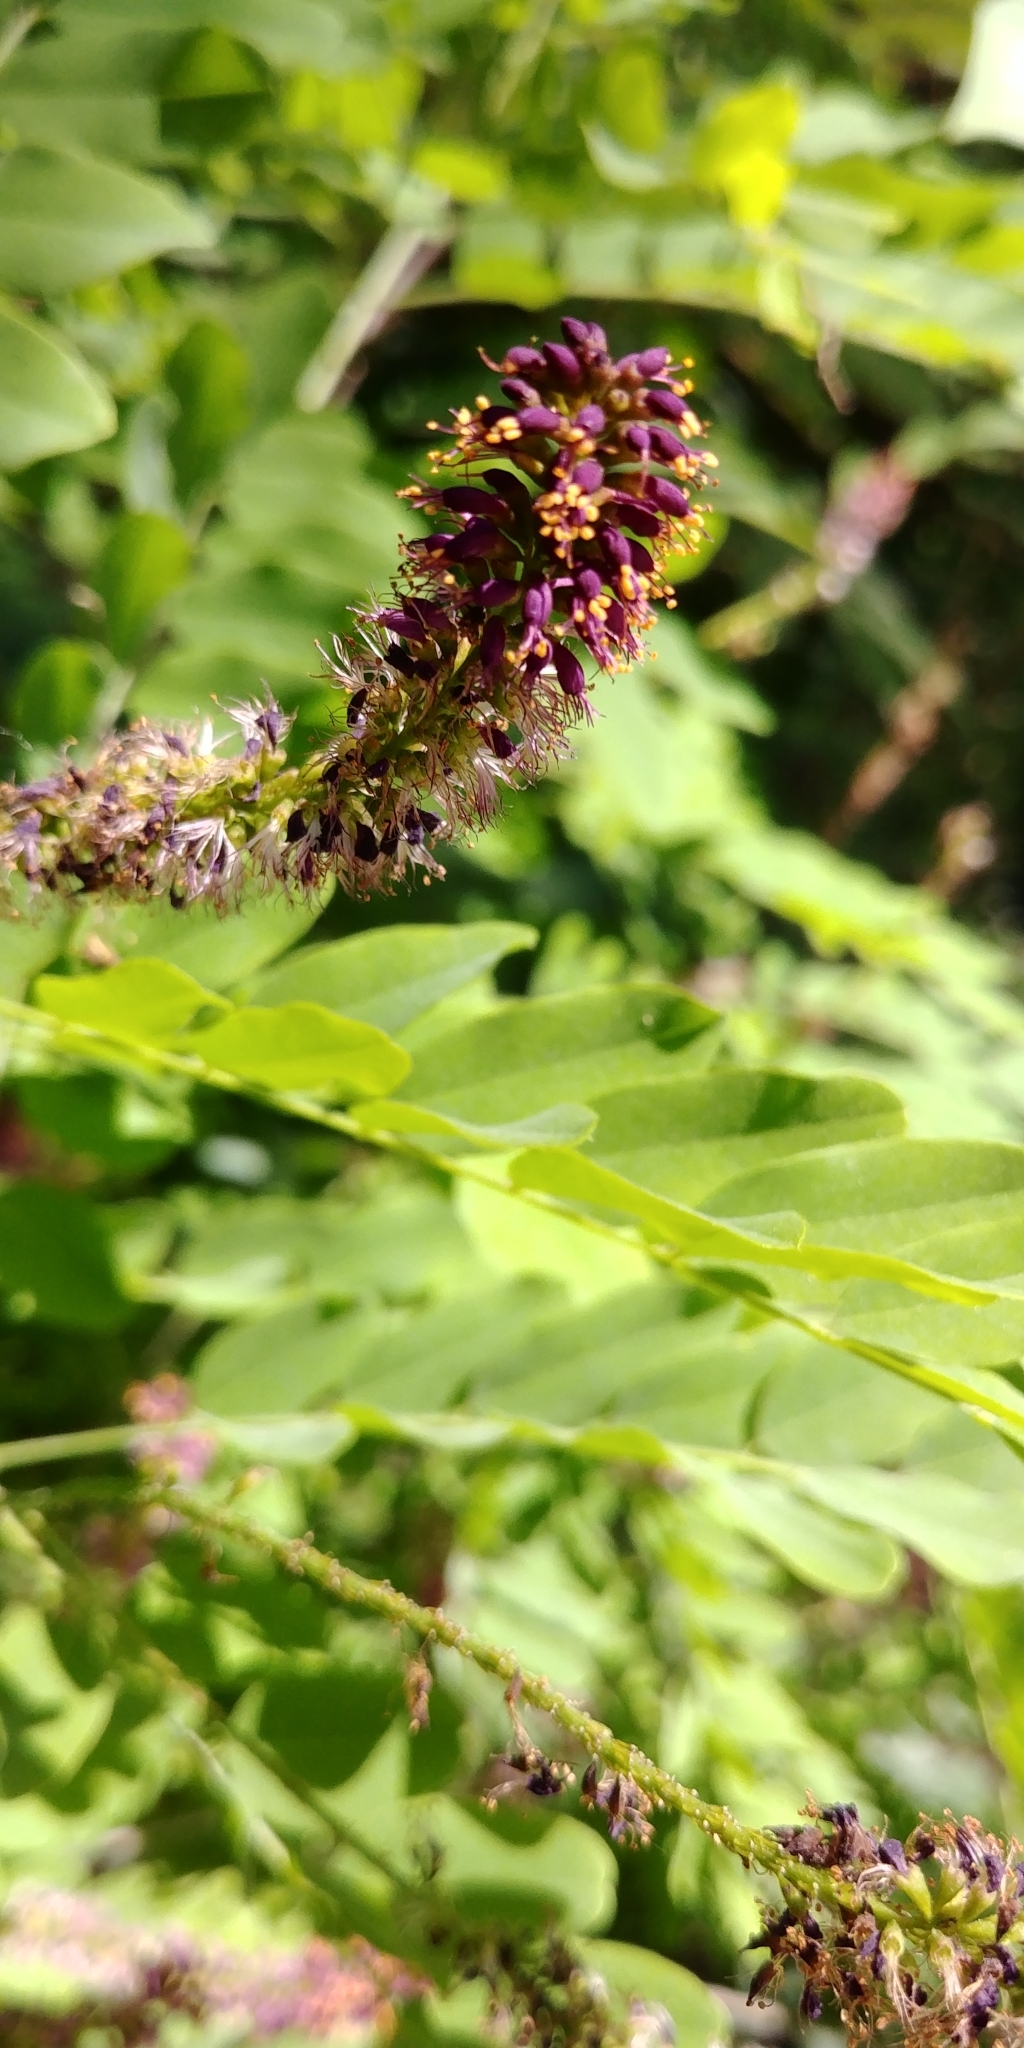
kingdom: Plantae
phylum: Tracheophyta
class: Magnoliopsida
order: Fabales
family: Fabaceae
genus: Amorpha
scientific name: Amorpha fruticosa
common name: False indigo
